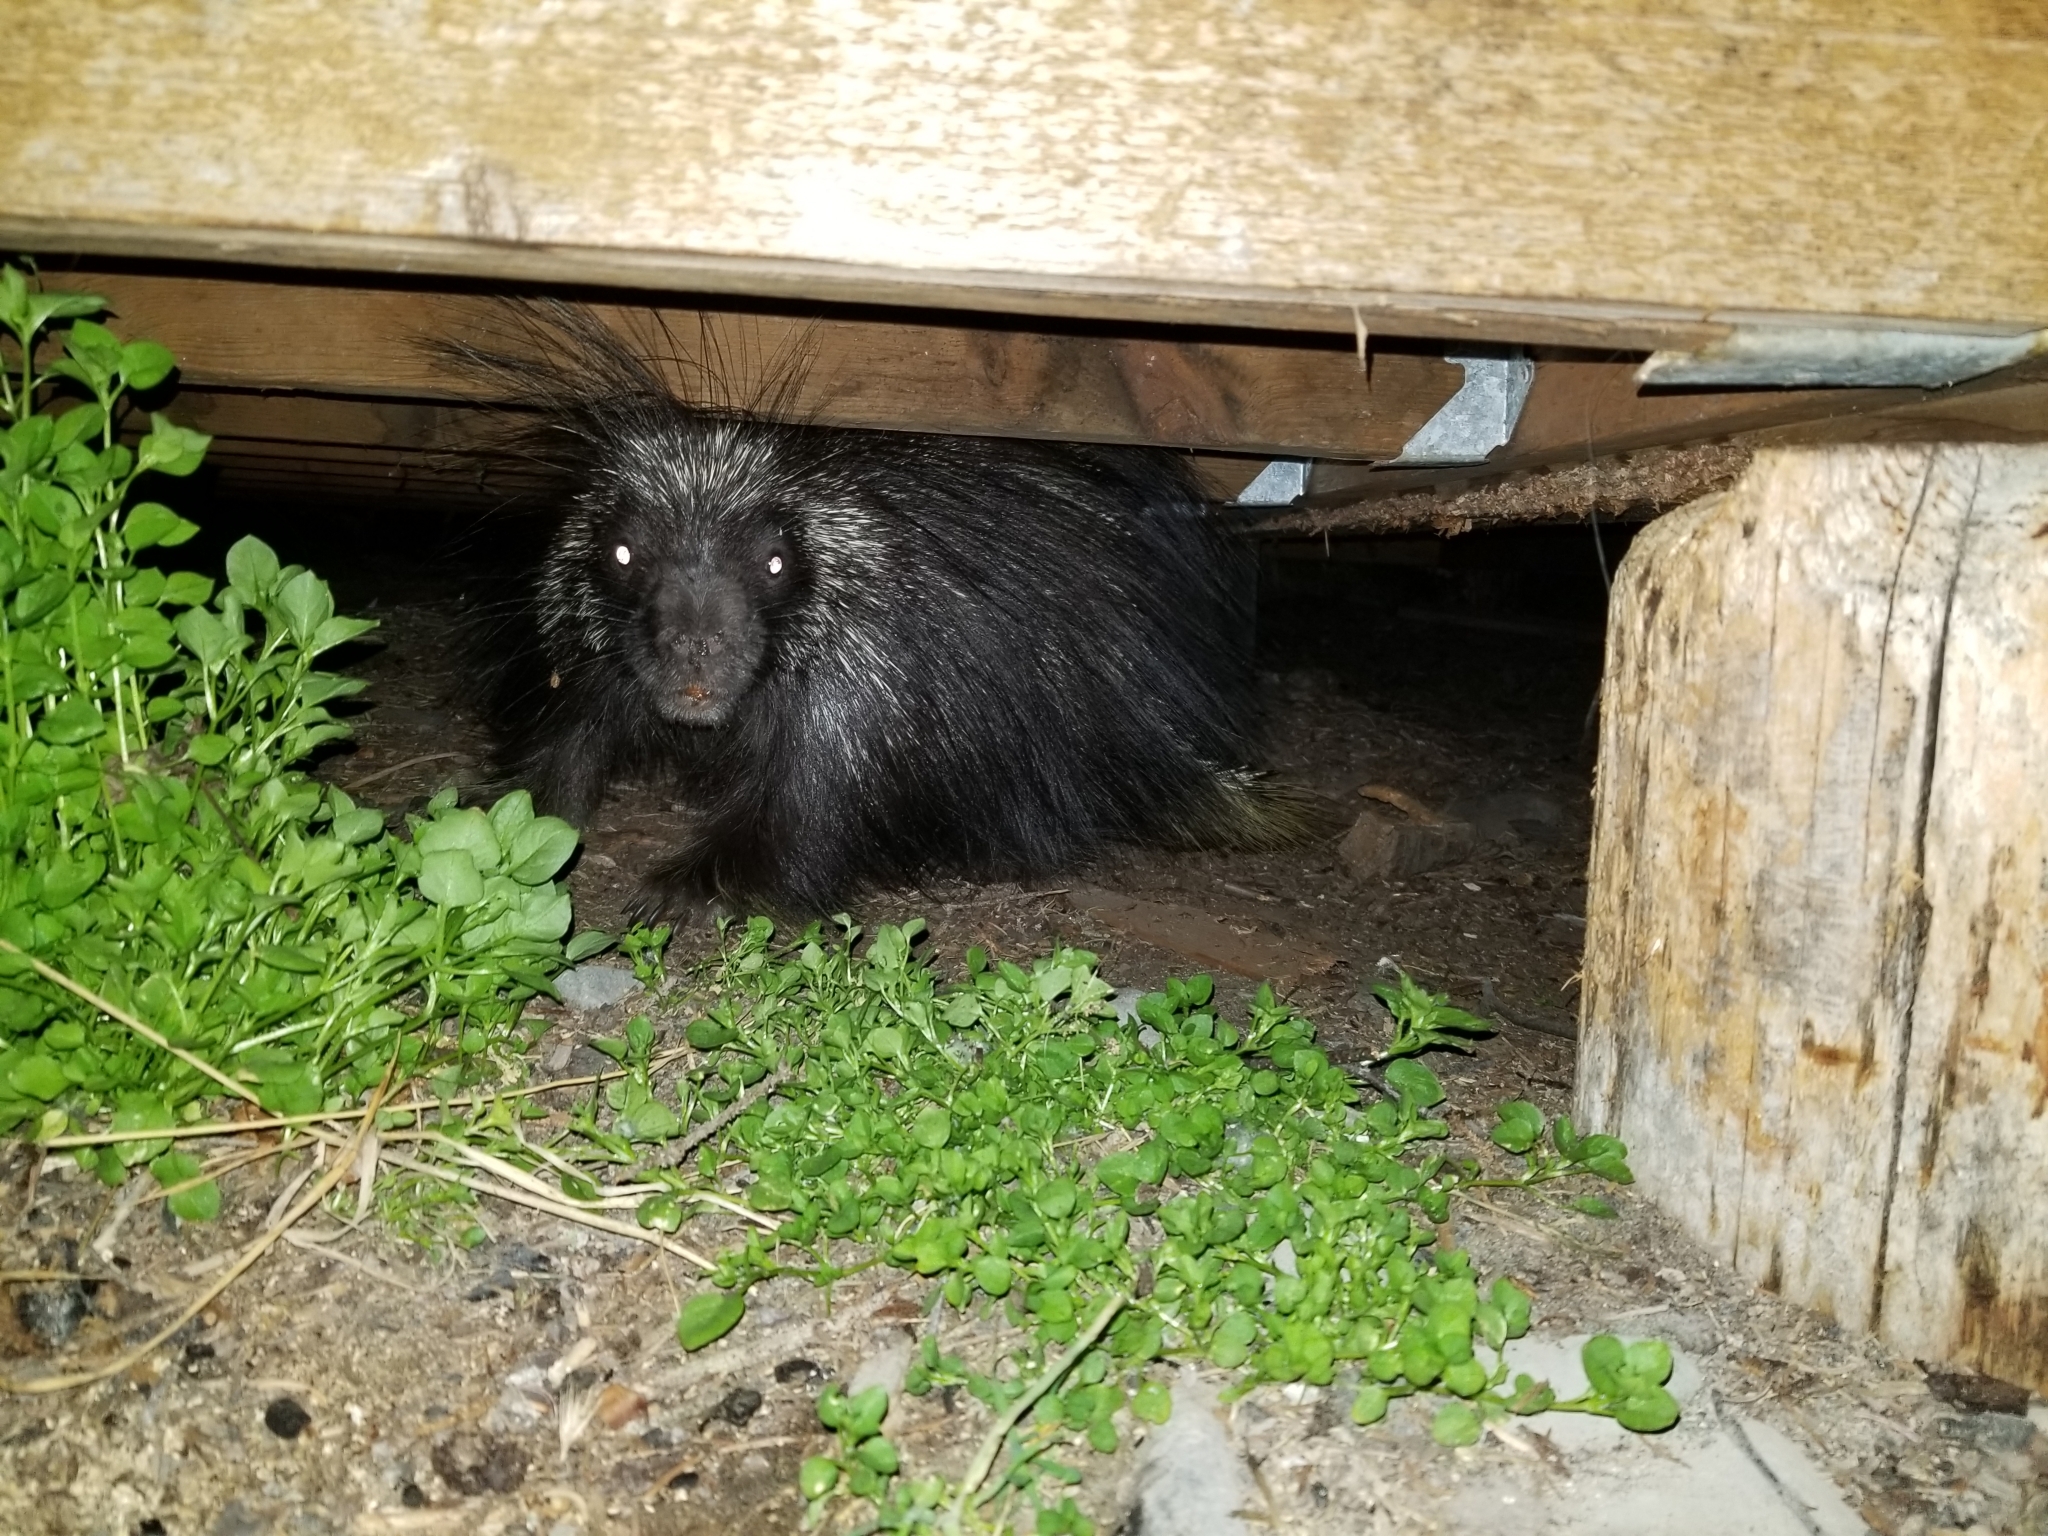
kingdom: Animalia
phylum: Chordata
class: Mammalia
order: Rodentia
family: Erethizontidae
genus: Erethizon
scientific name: Erethizon dorsatus
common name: North american porcupine
